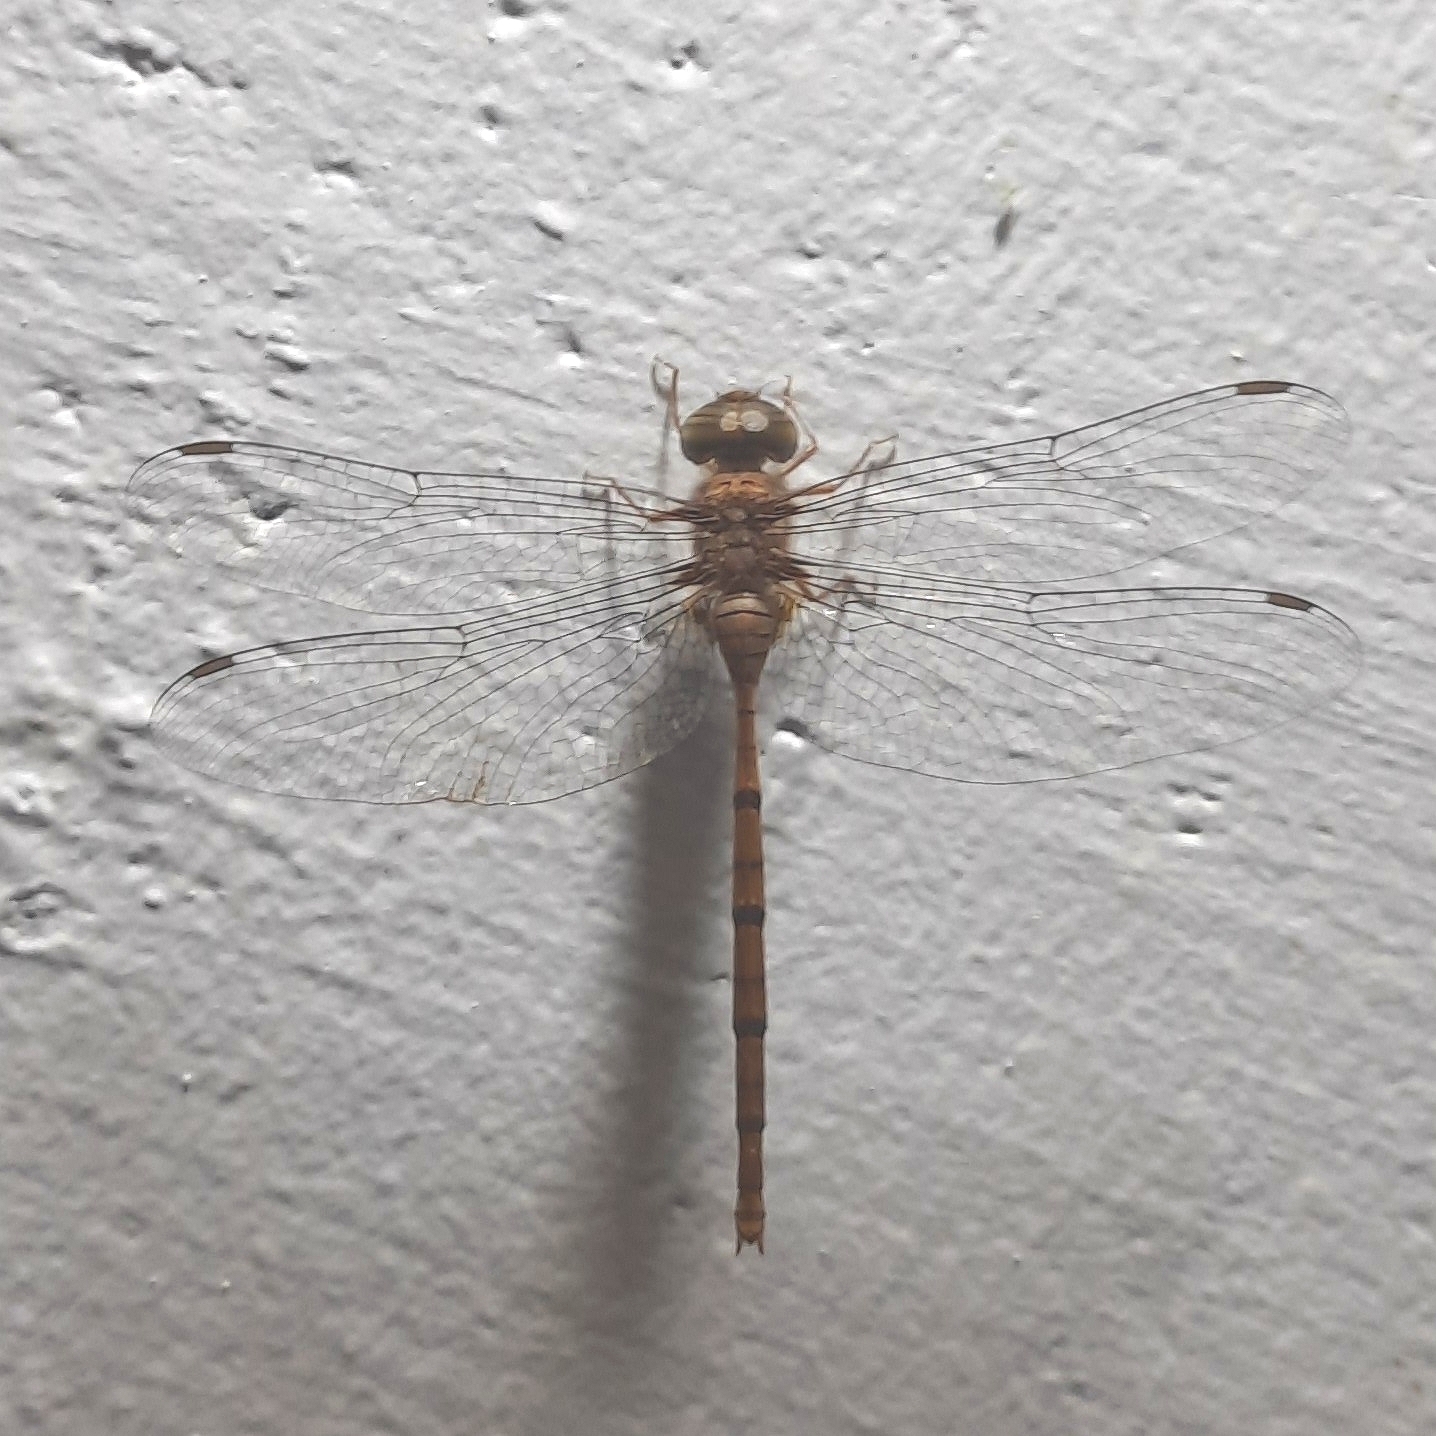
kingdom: Animalia
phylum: Arthropoda
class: Insecta
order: Odonata
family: Libellulidae
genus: Zyxomma
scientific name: Zyxomma petiolatum
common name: Dingy dusk-darter
